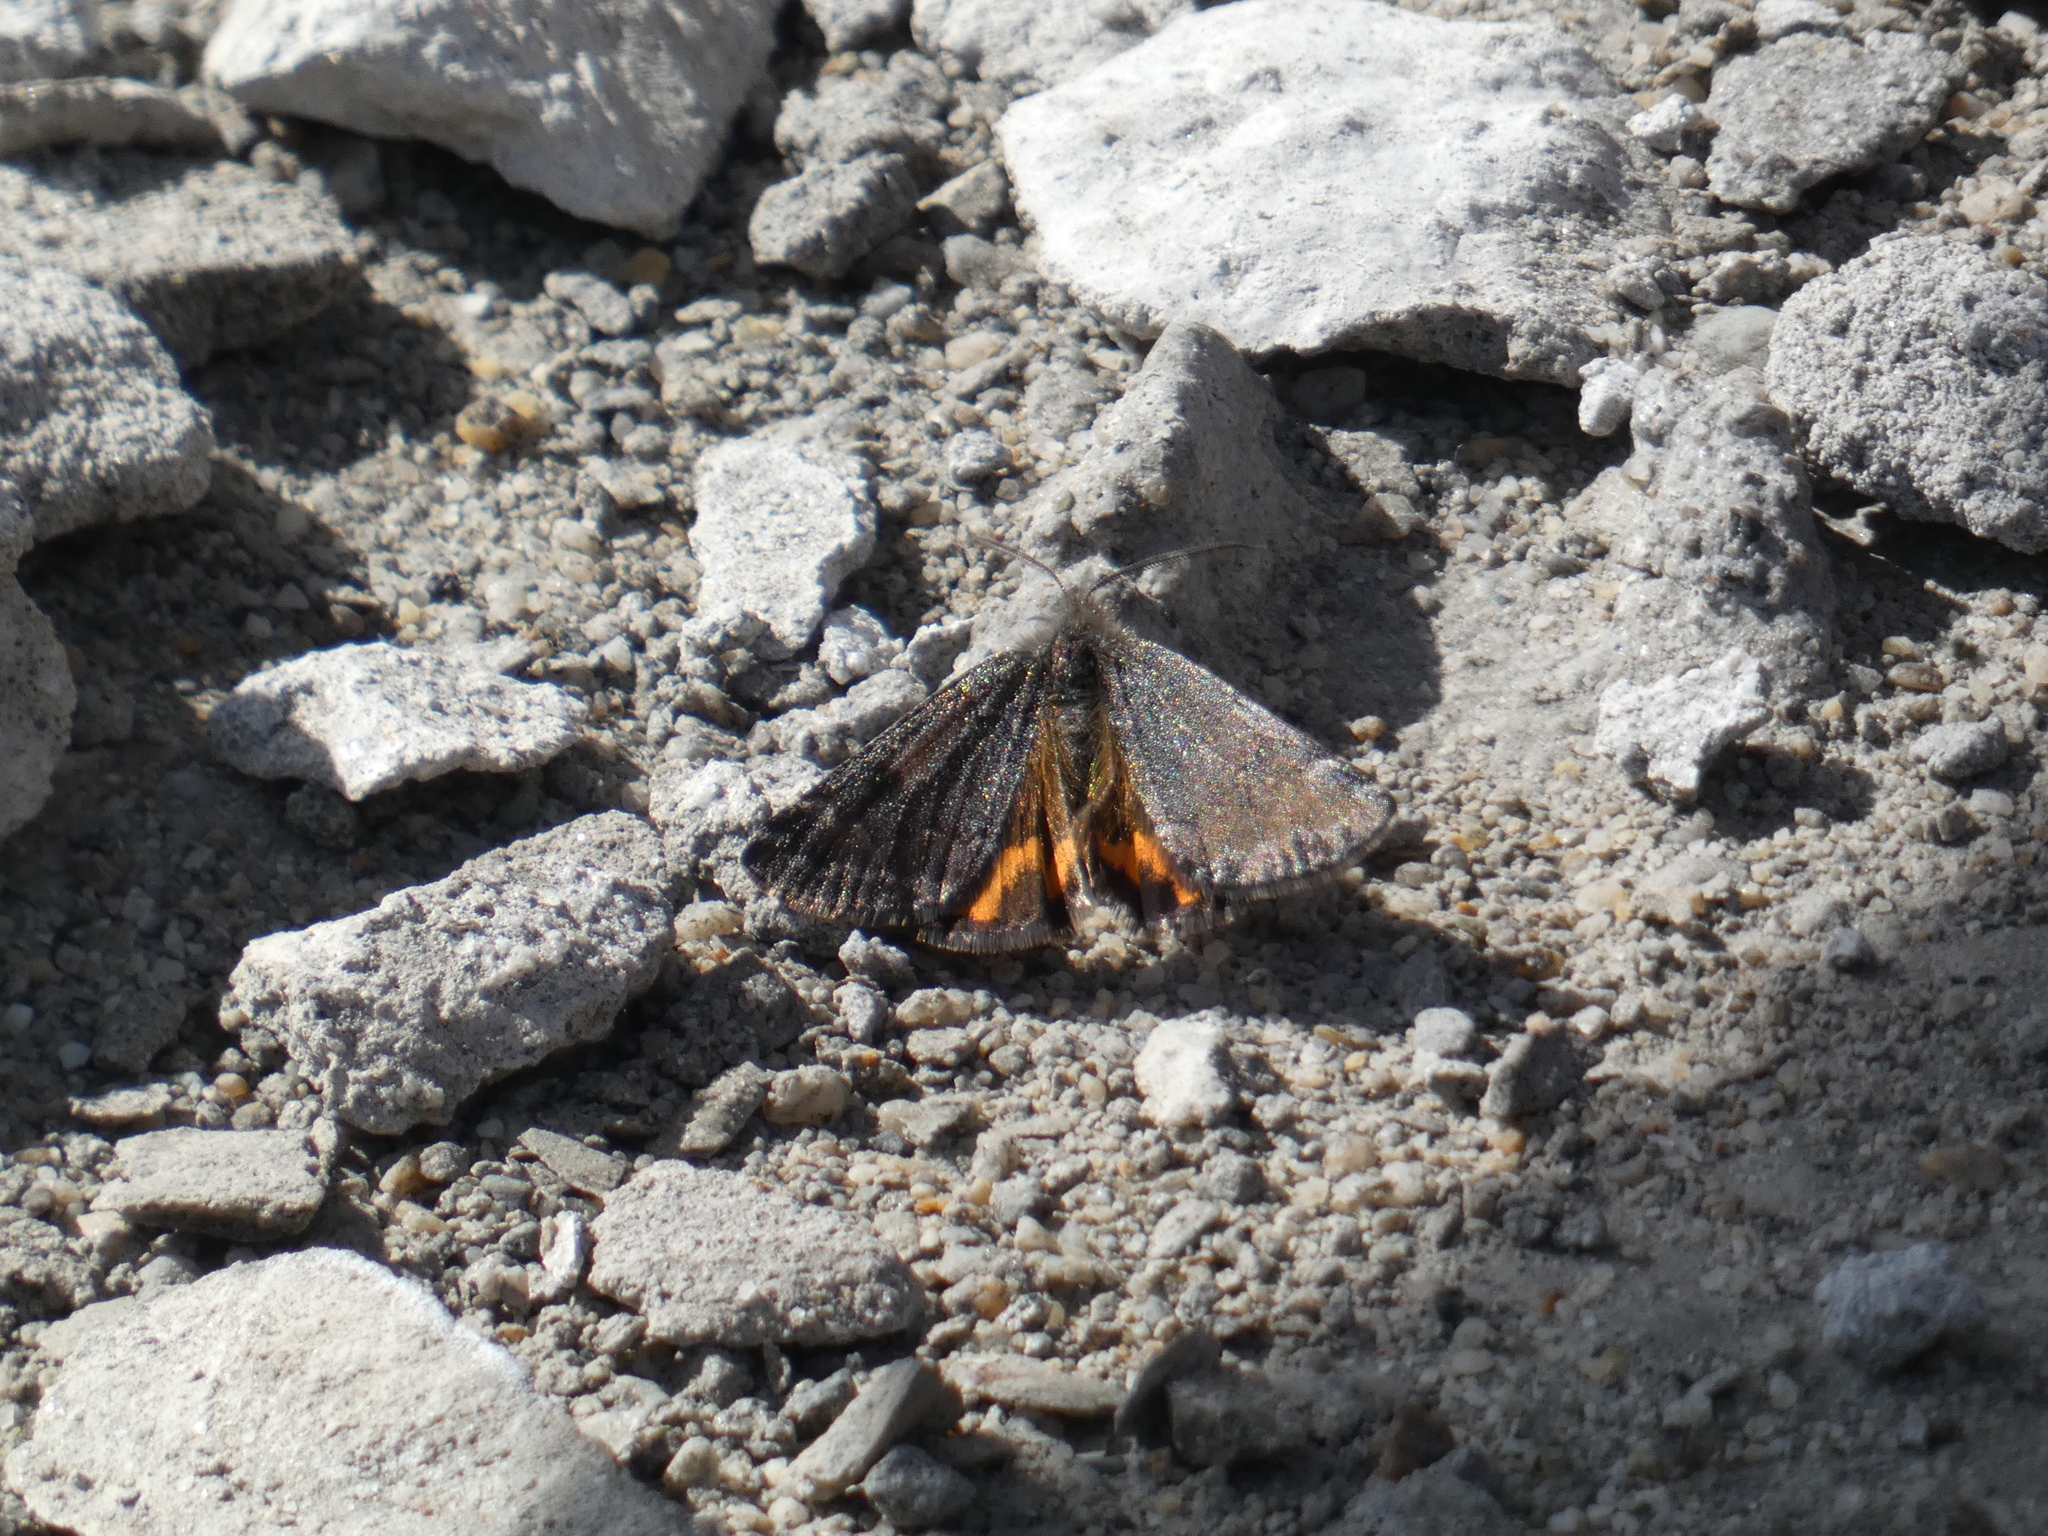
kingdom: Animalia
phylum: Arthropoda
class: Insecta
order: Lepidoptera
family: Geometridae
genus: Archiearis
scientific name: Archiearis notha
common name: Light orange underwing
